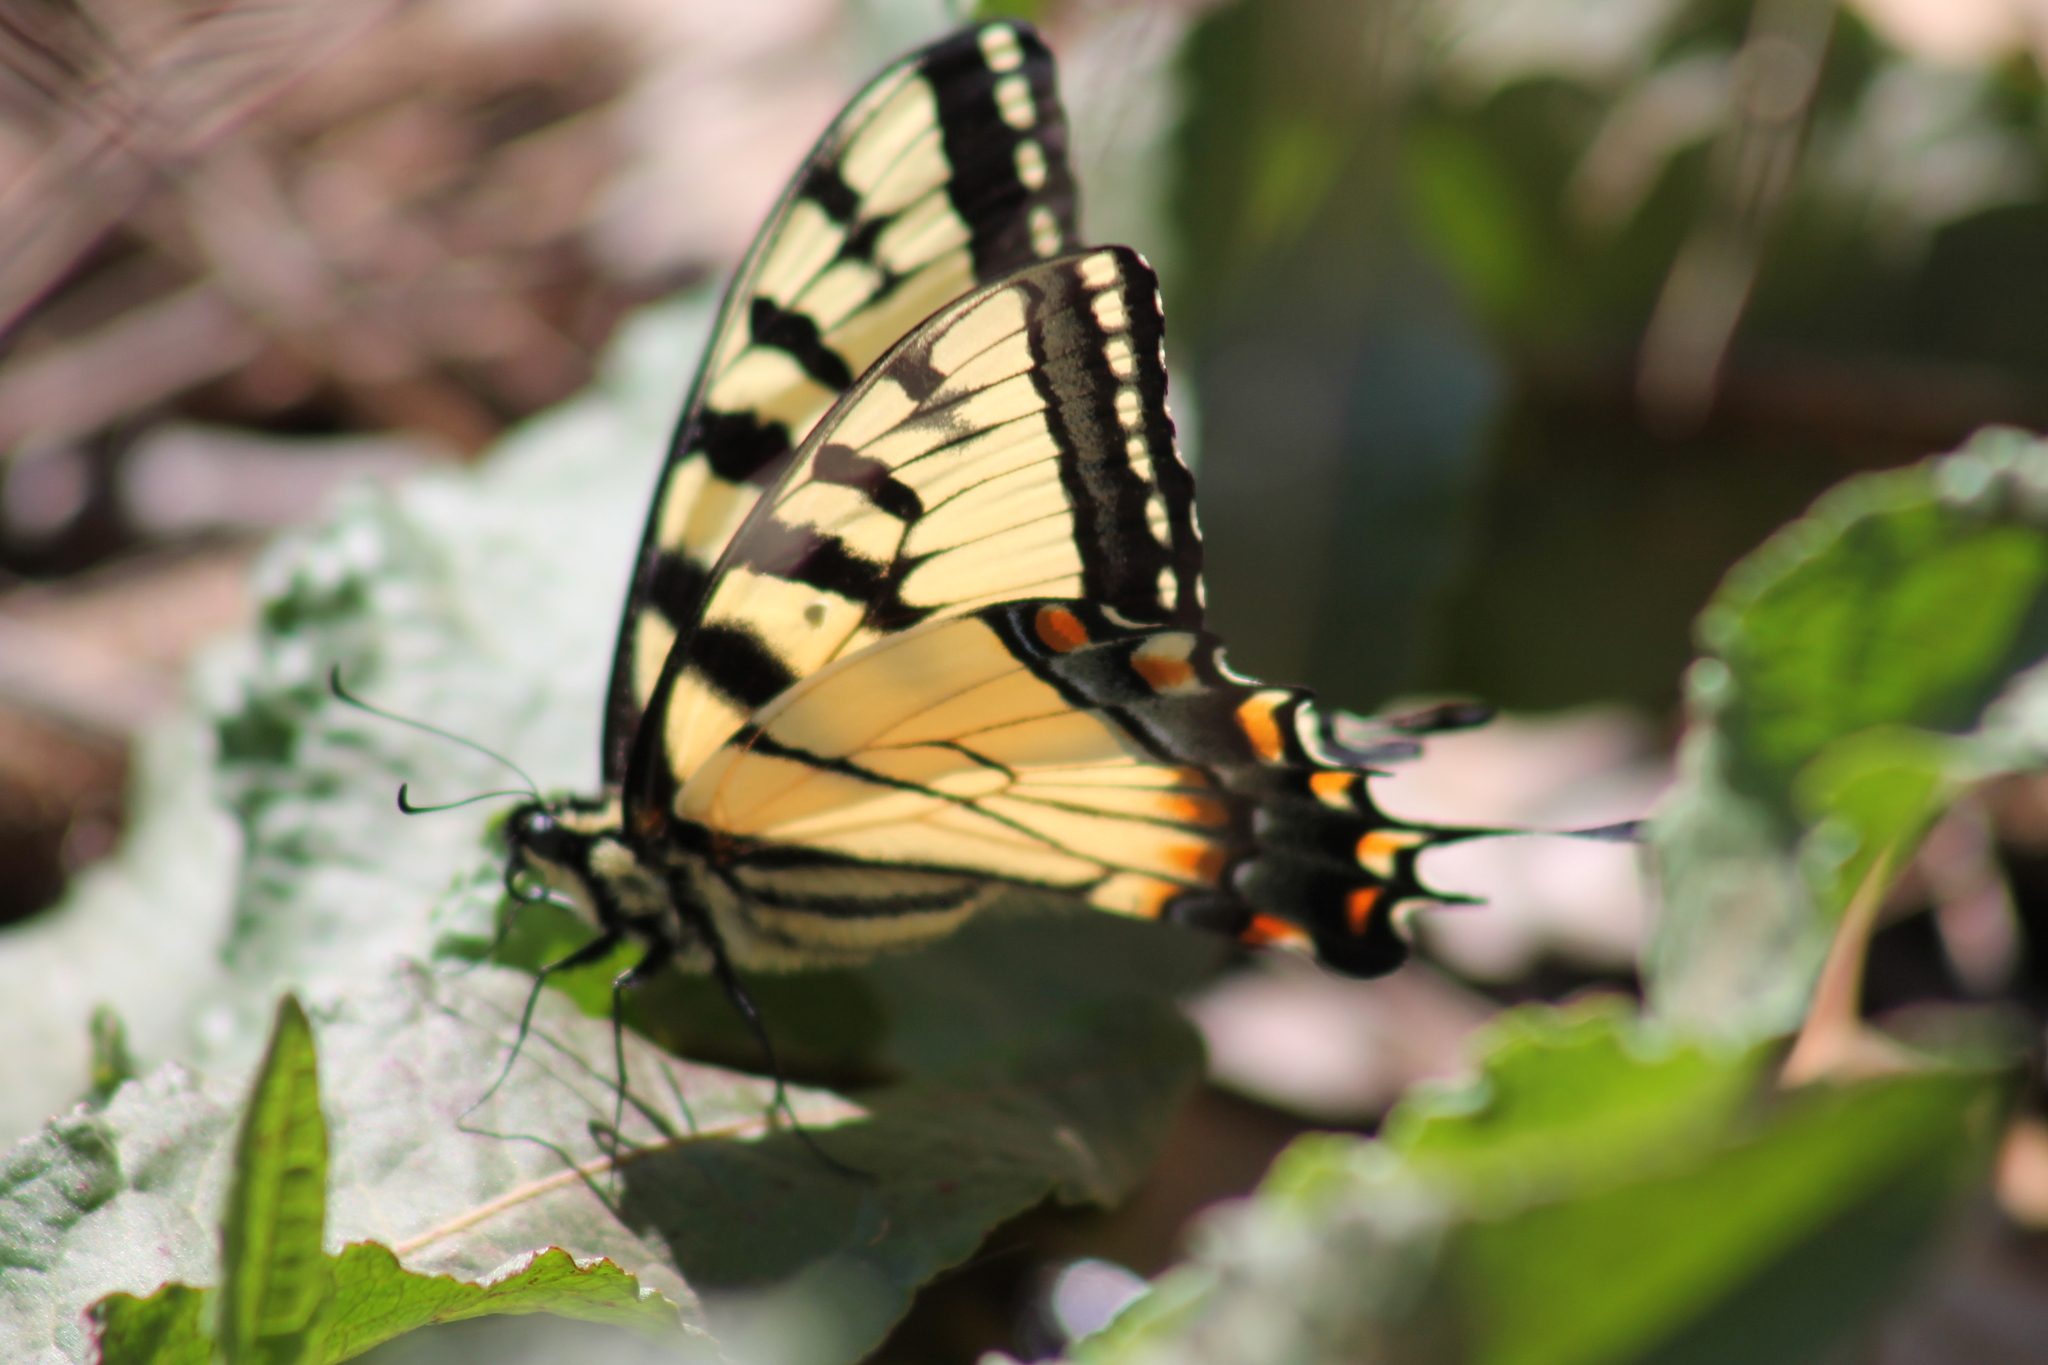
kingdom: Animalia
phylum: Arthropoda
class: Insecta
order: Lepidoptera
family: Papilionidae
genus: Papilio
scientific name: Papilio glaucus
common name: Tiger swallowtail
